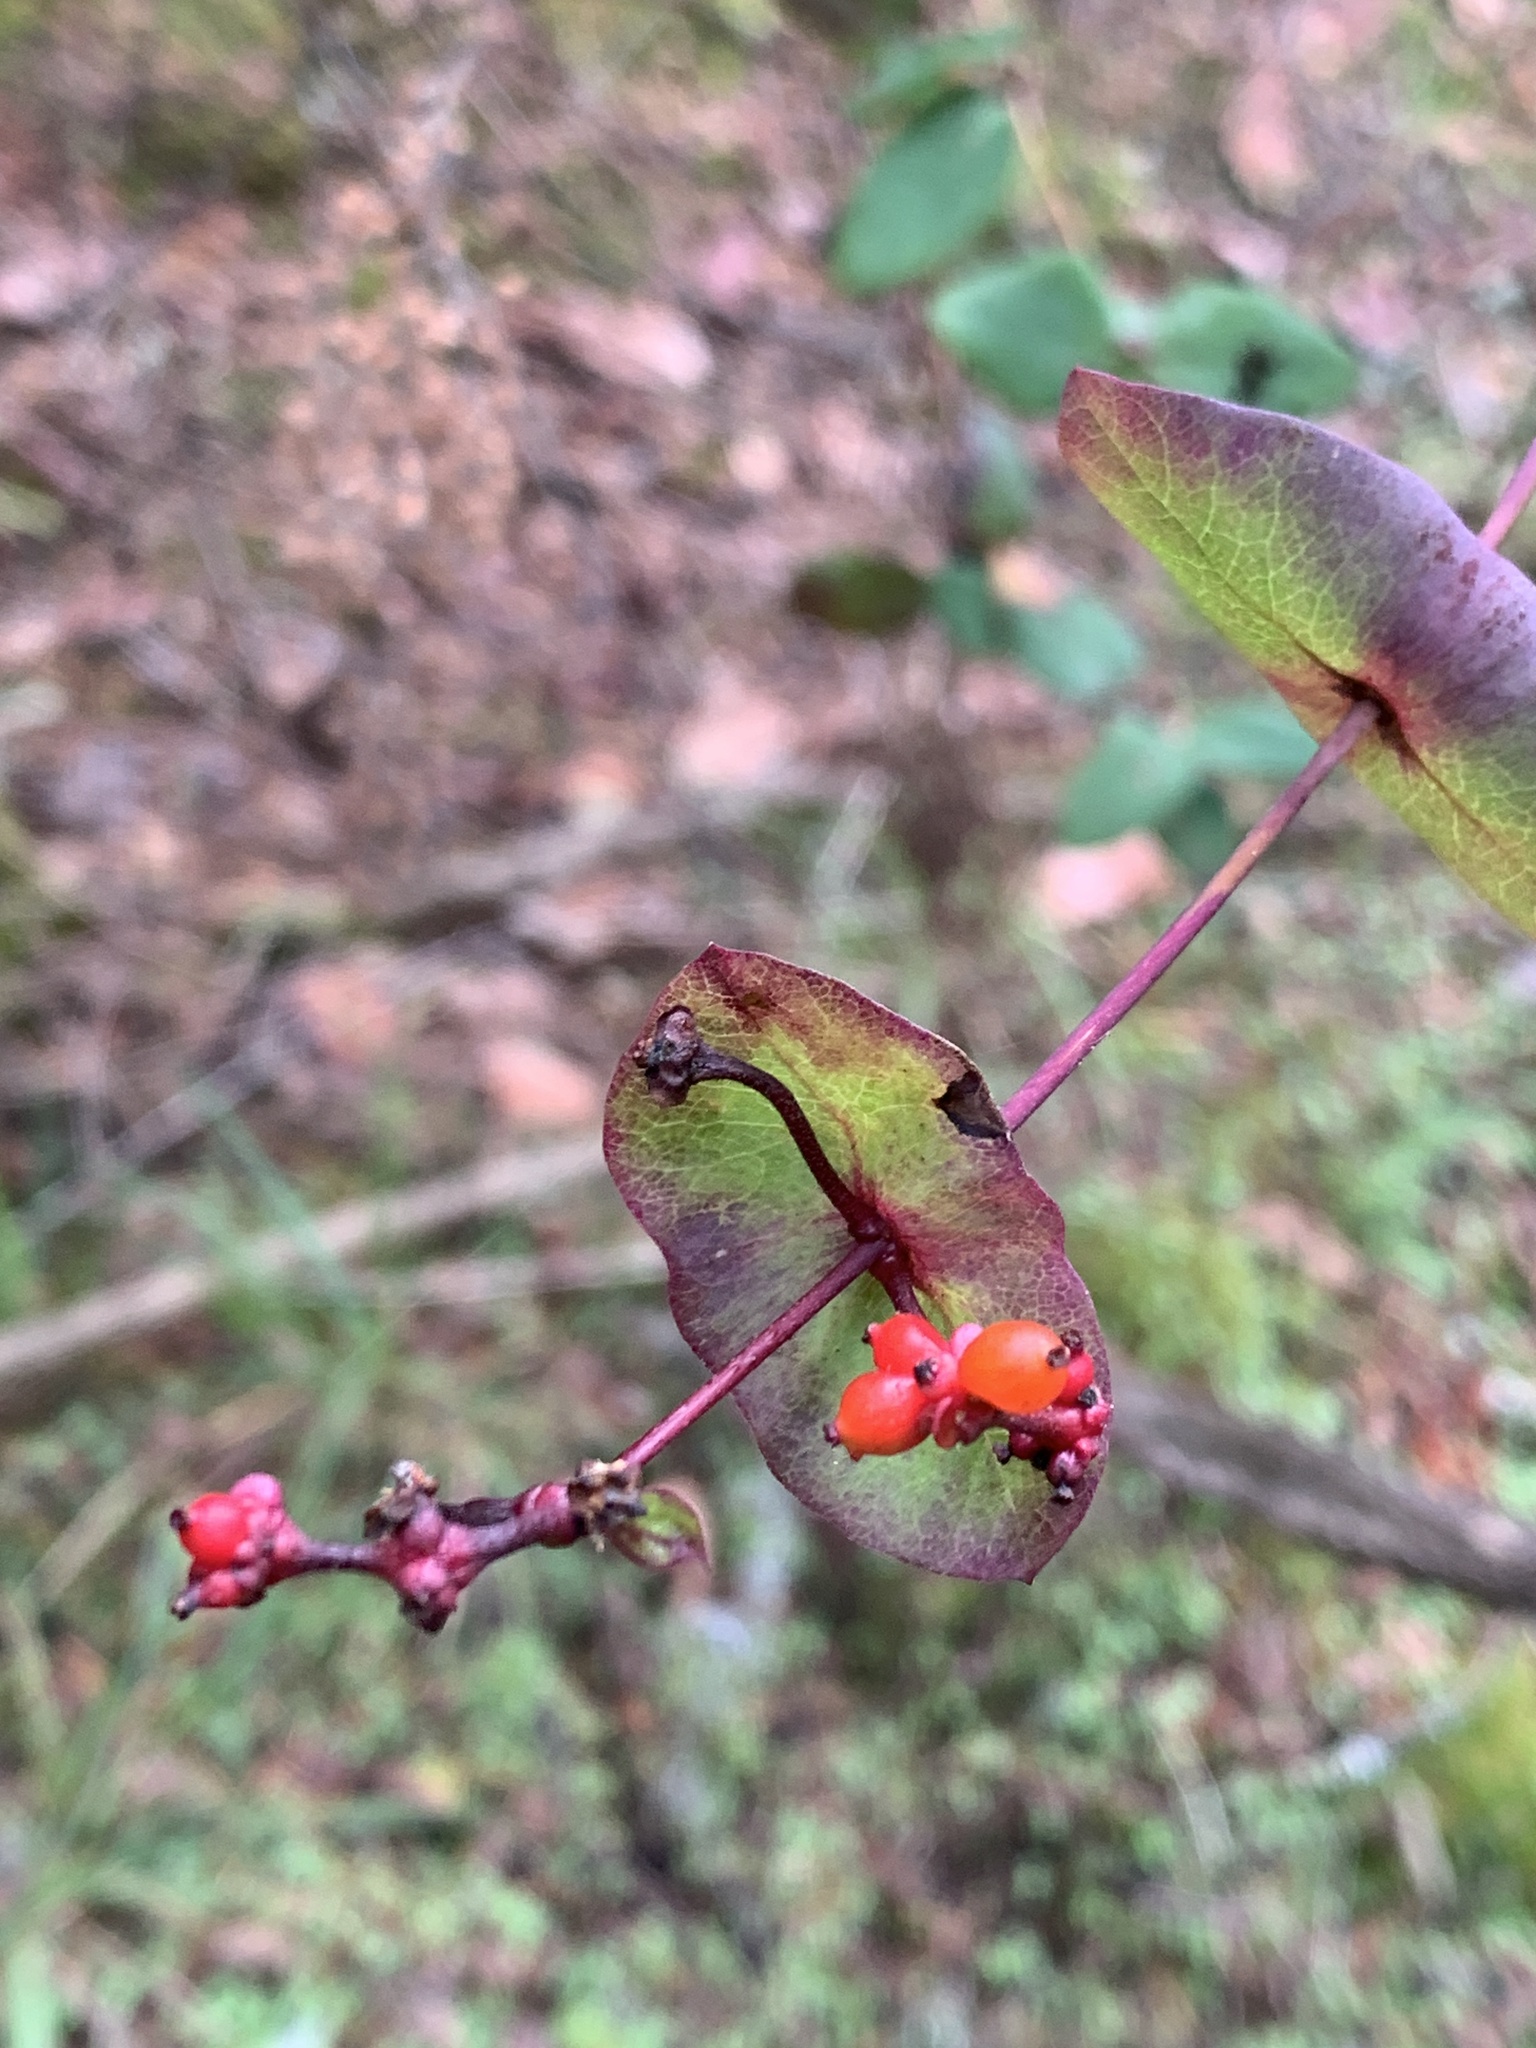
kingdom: Plantae
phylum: Tracheophyta
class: Magnoliopsida
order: Dipsacales
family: Caprifoliaceae
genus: Lonicera
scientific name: Lonicera hispidula
